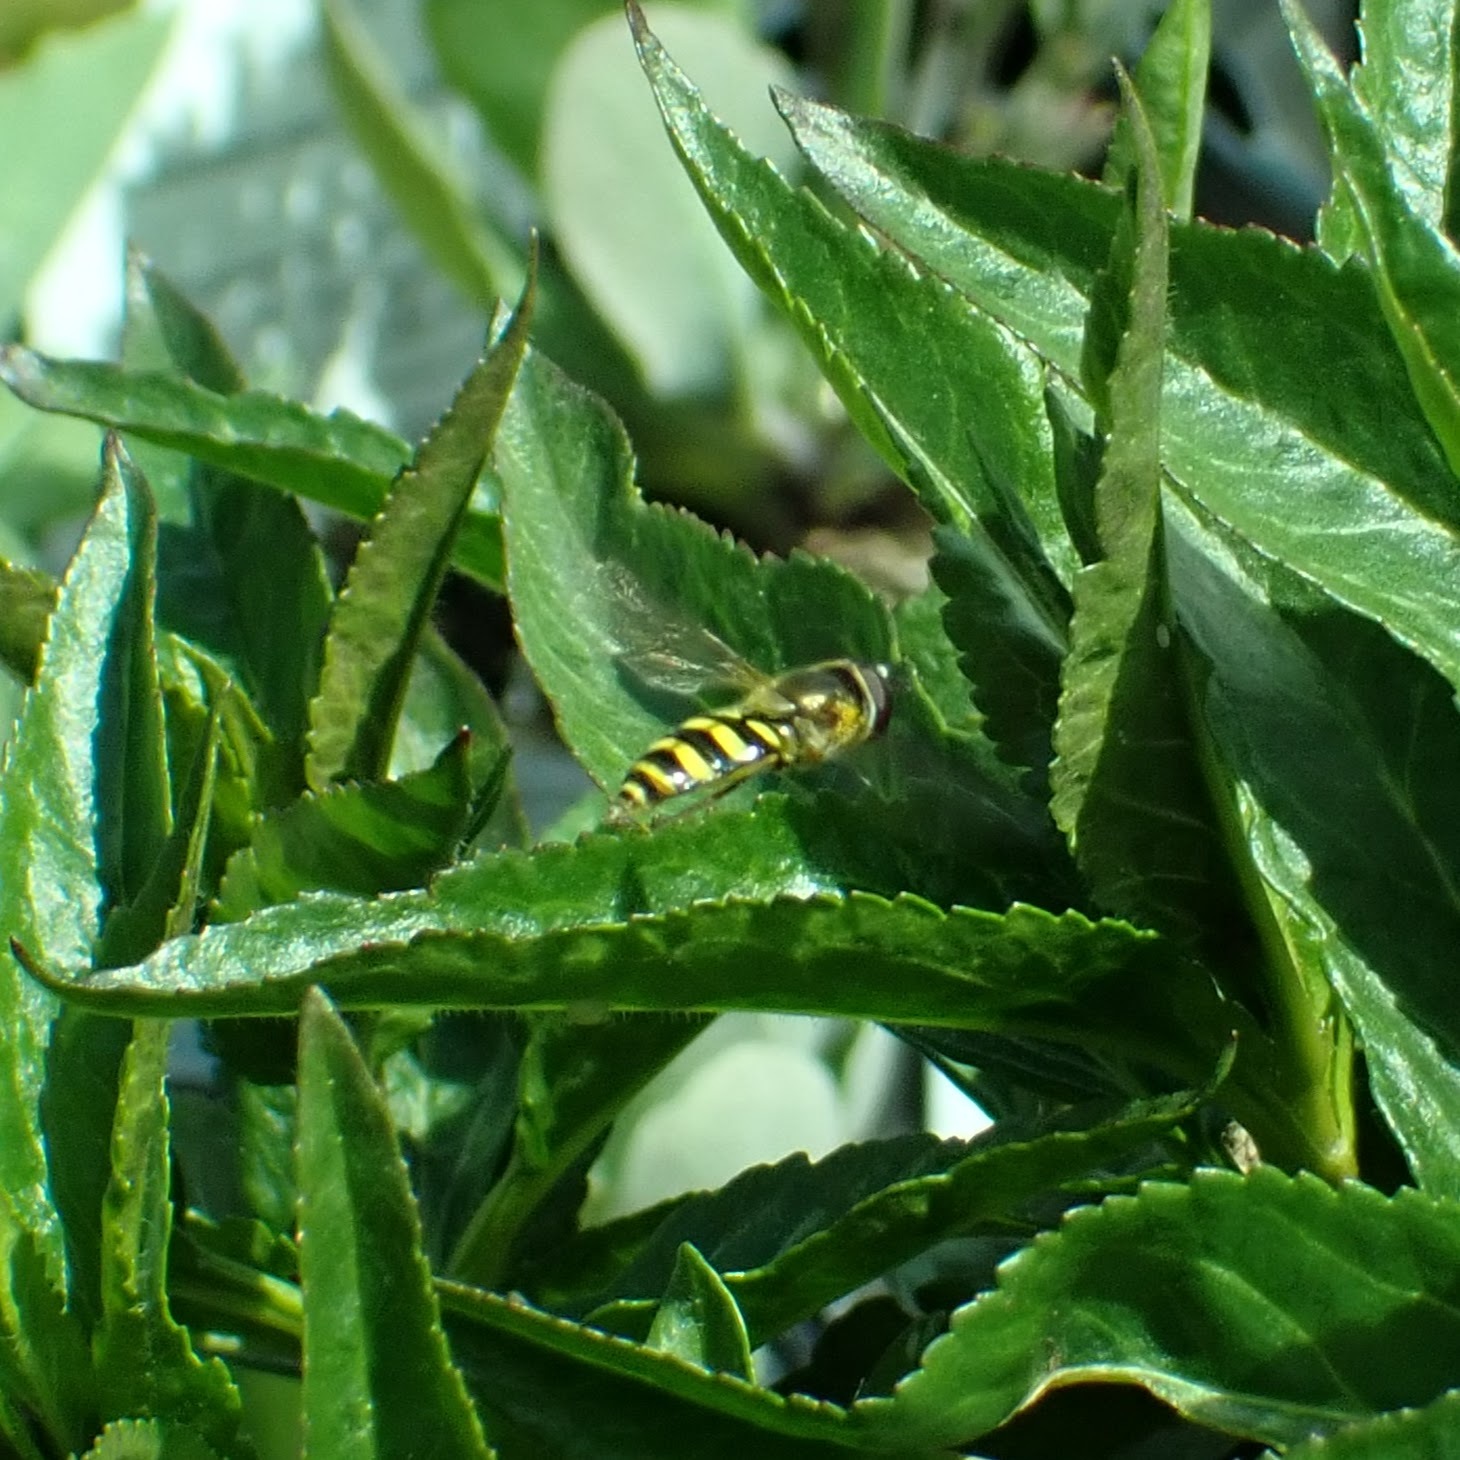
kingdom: Animalia
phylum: Arthropoda
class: Insecta
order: Diptera
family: Syrphidae
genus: Eupeodes
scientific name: Eupeodes
